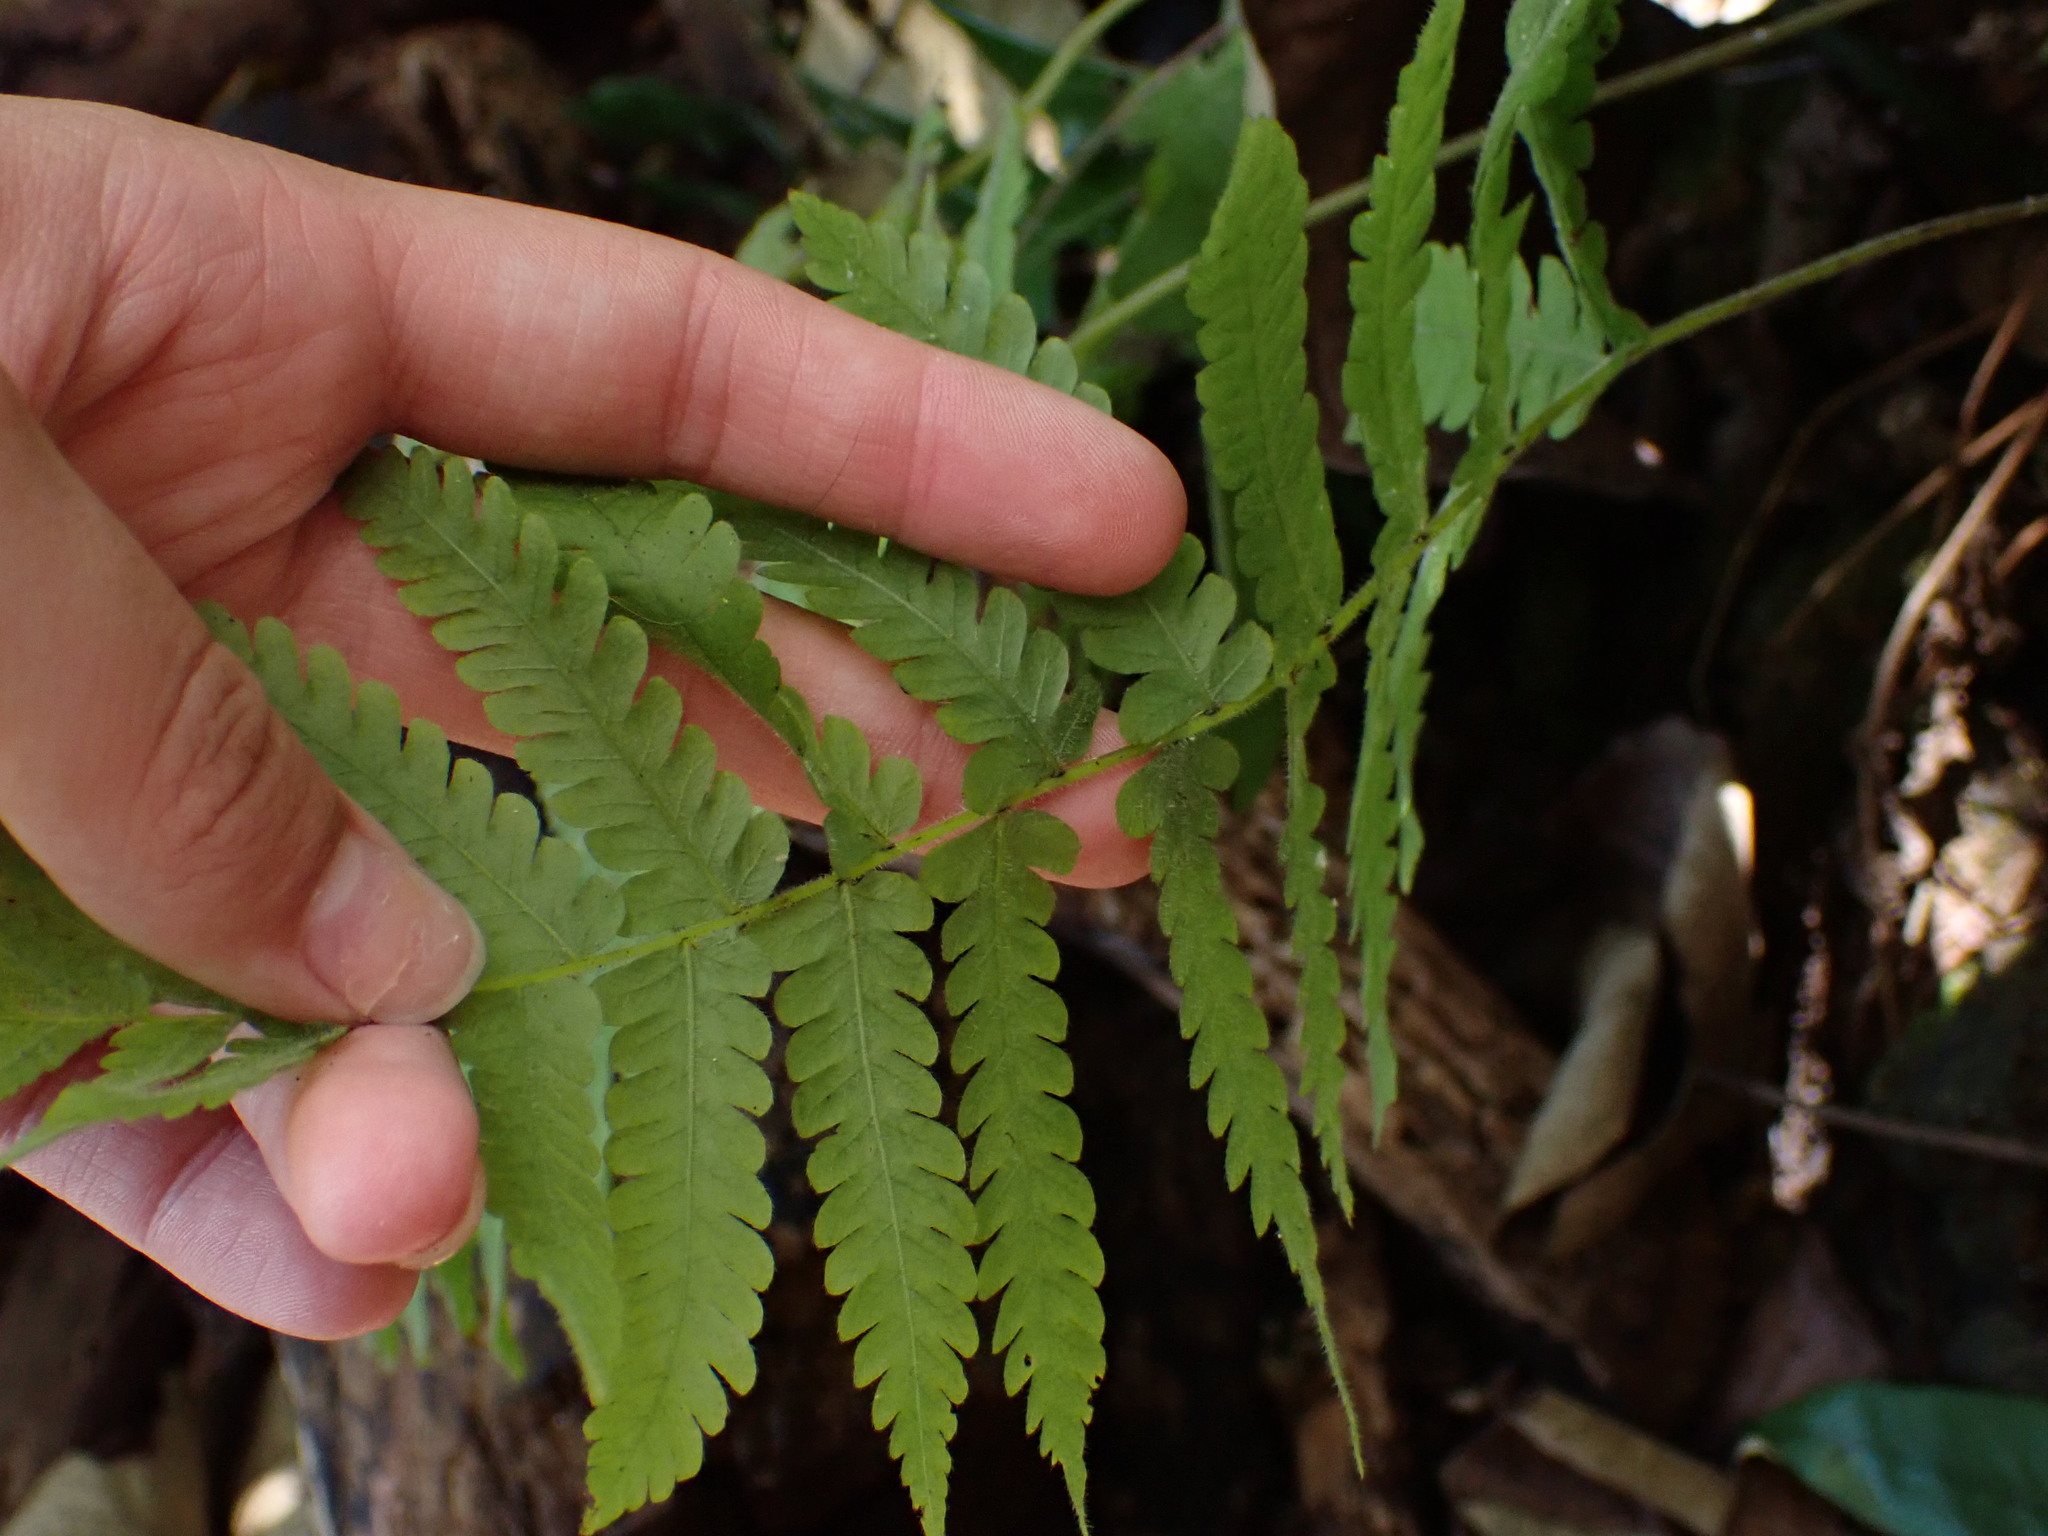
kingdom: Plantae
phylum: Tracheophyta
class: Polypodiopsida
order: Polypodiales
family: Thelypteridaceae
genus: Christella
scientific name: Christella parasitica
